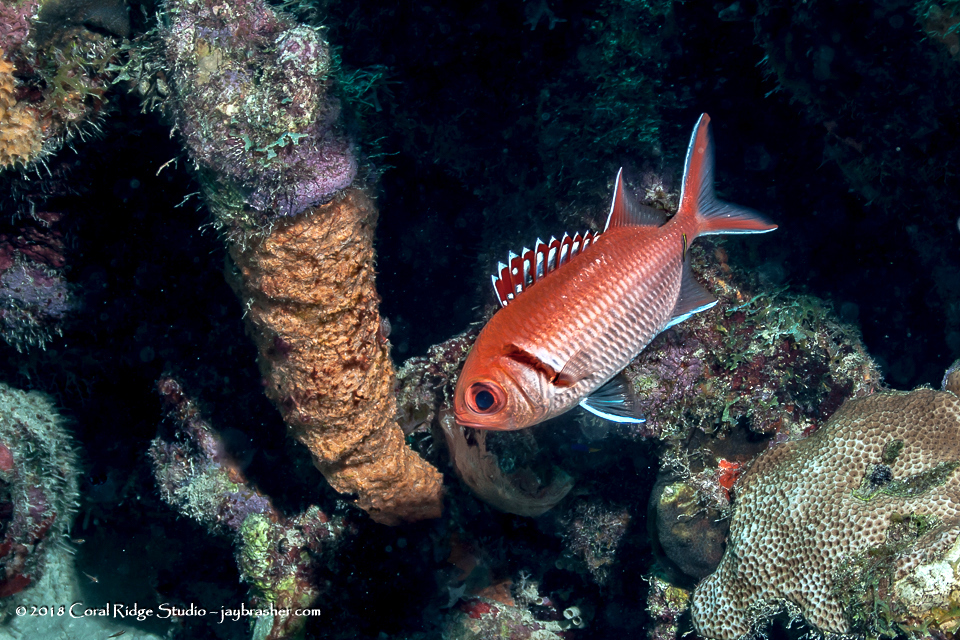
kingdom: Animalia
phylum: Chordata
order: Beryciformes
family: Holocentridae
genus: Myripristis
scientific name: Myripristis jacobus
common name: Blackbar soldierfish
